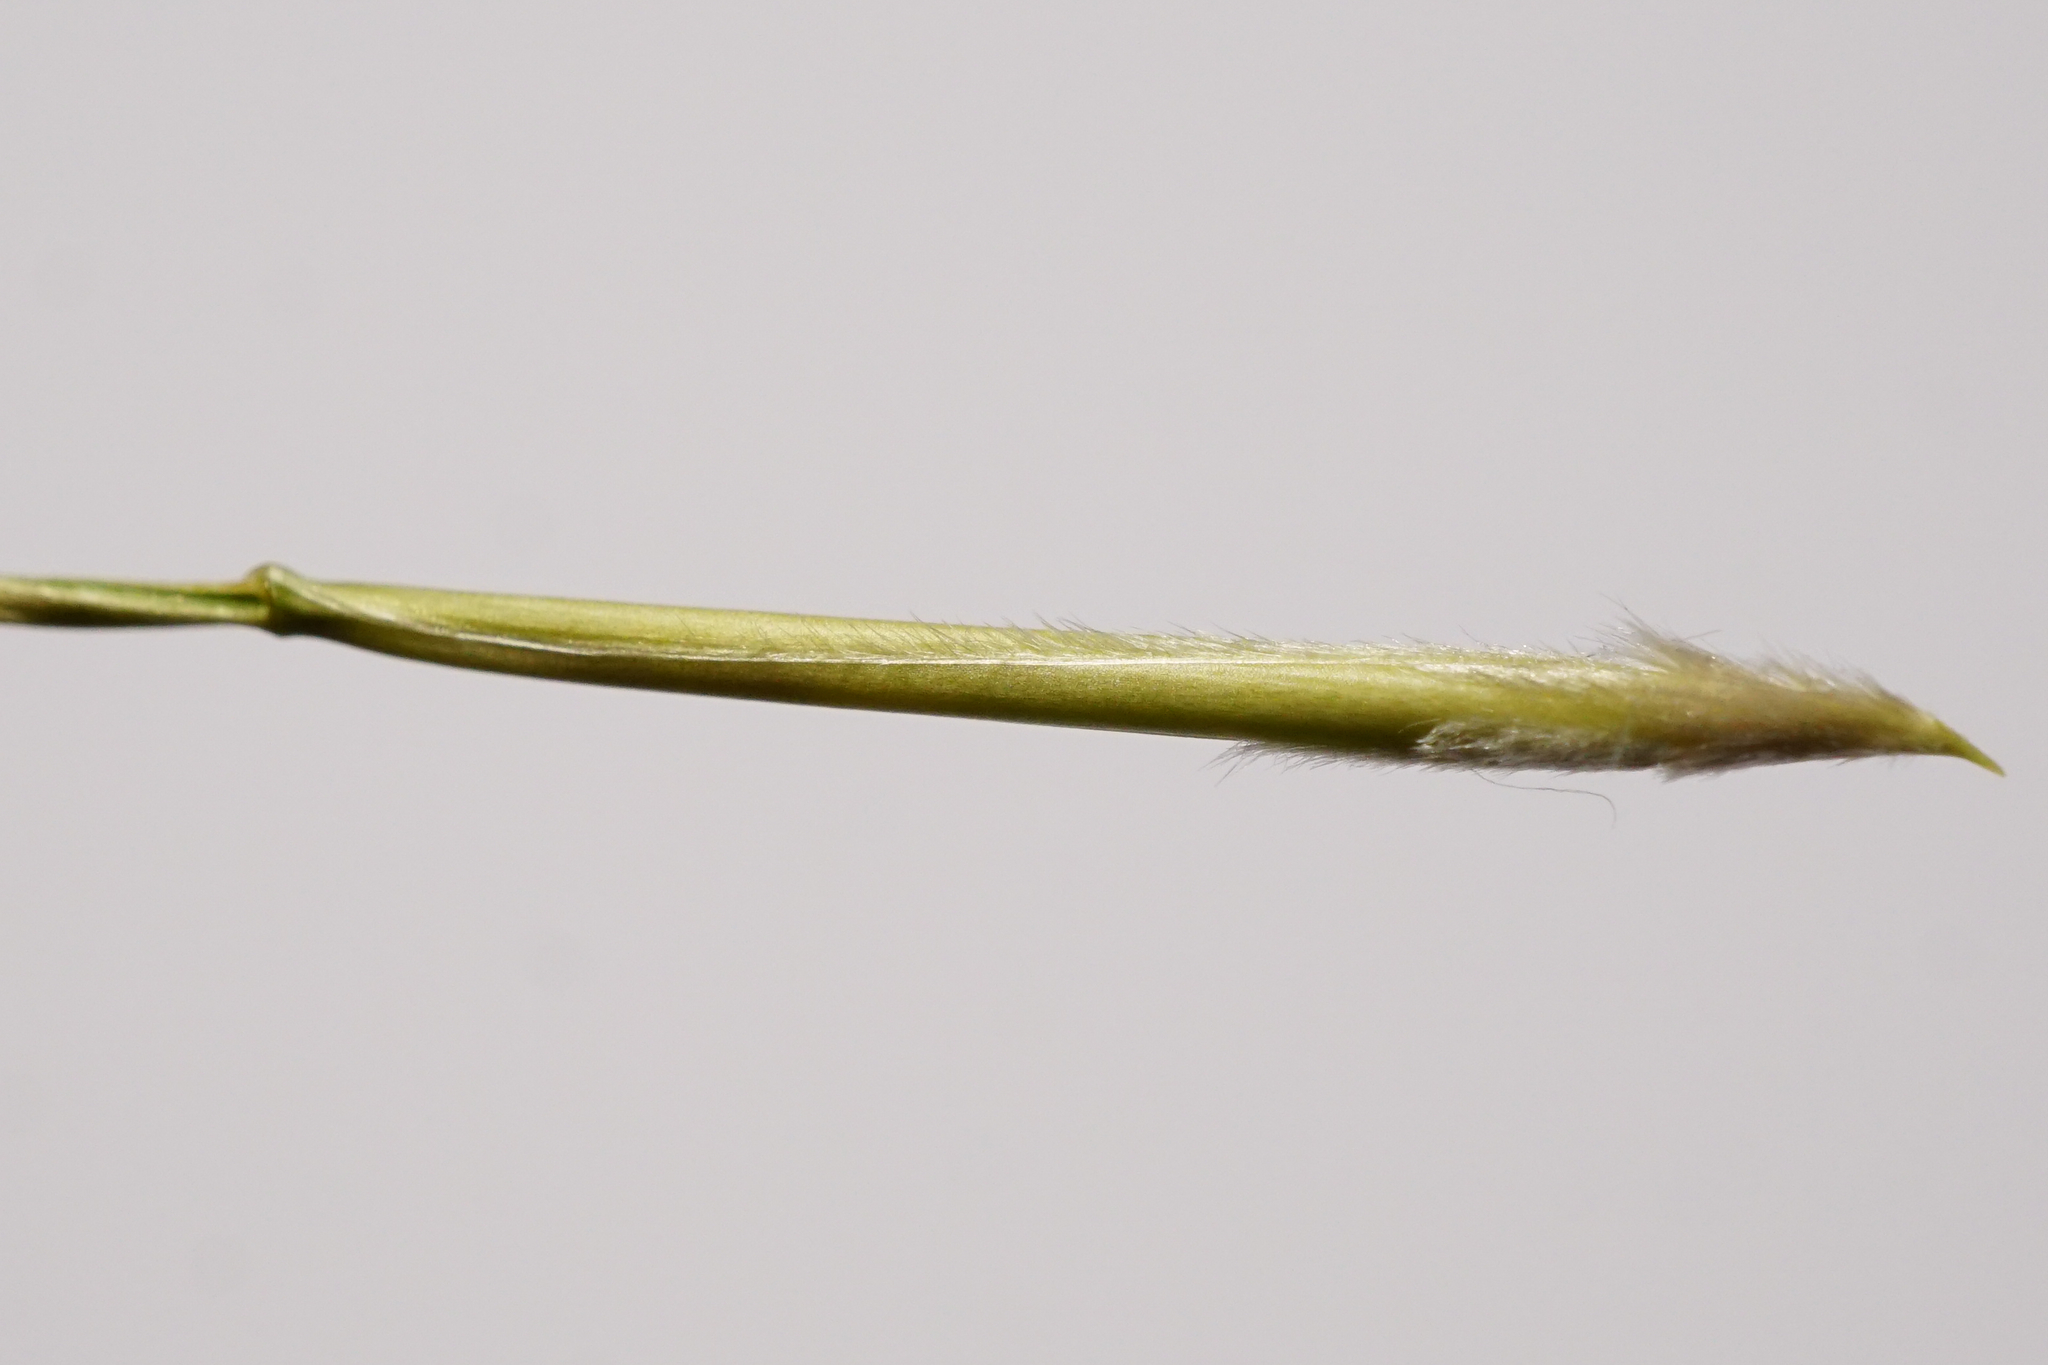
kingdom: Plantae
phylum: Tracheophyta
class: Liliopsida
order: Poales
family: Poaceae
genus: Stipa
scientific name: Stipa pennata
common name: European feather grass
